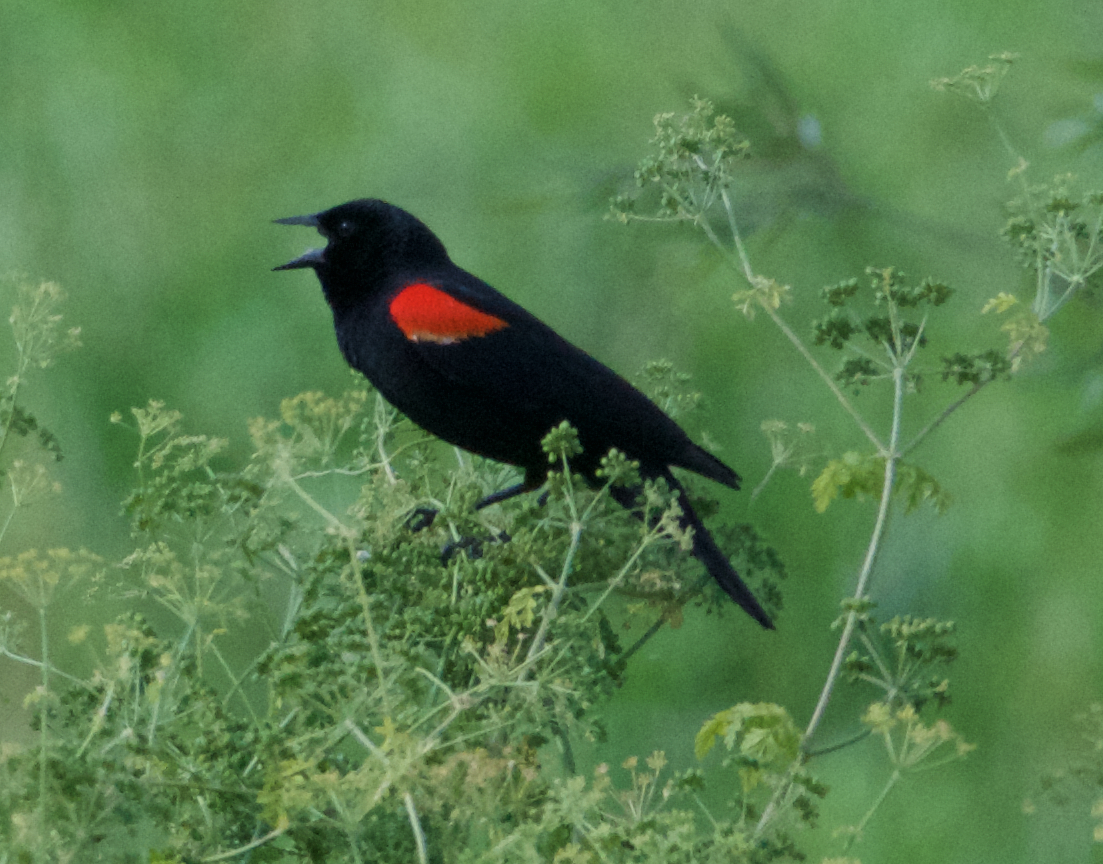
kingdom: Animalia
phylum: Chordata
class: Aves
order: Passeriformes
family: Icteridae
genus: Agelaius
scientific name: Agelaius phoeniceus
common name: Red-winged blackbird
